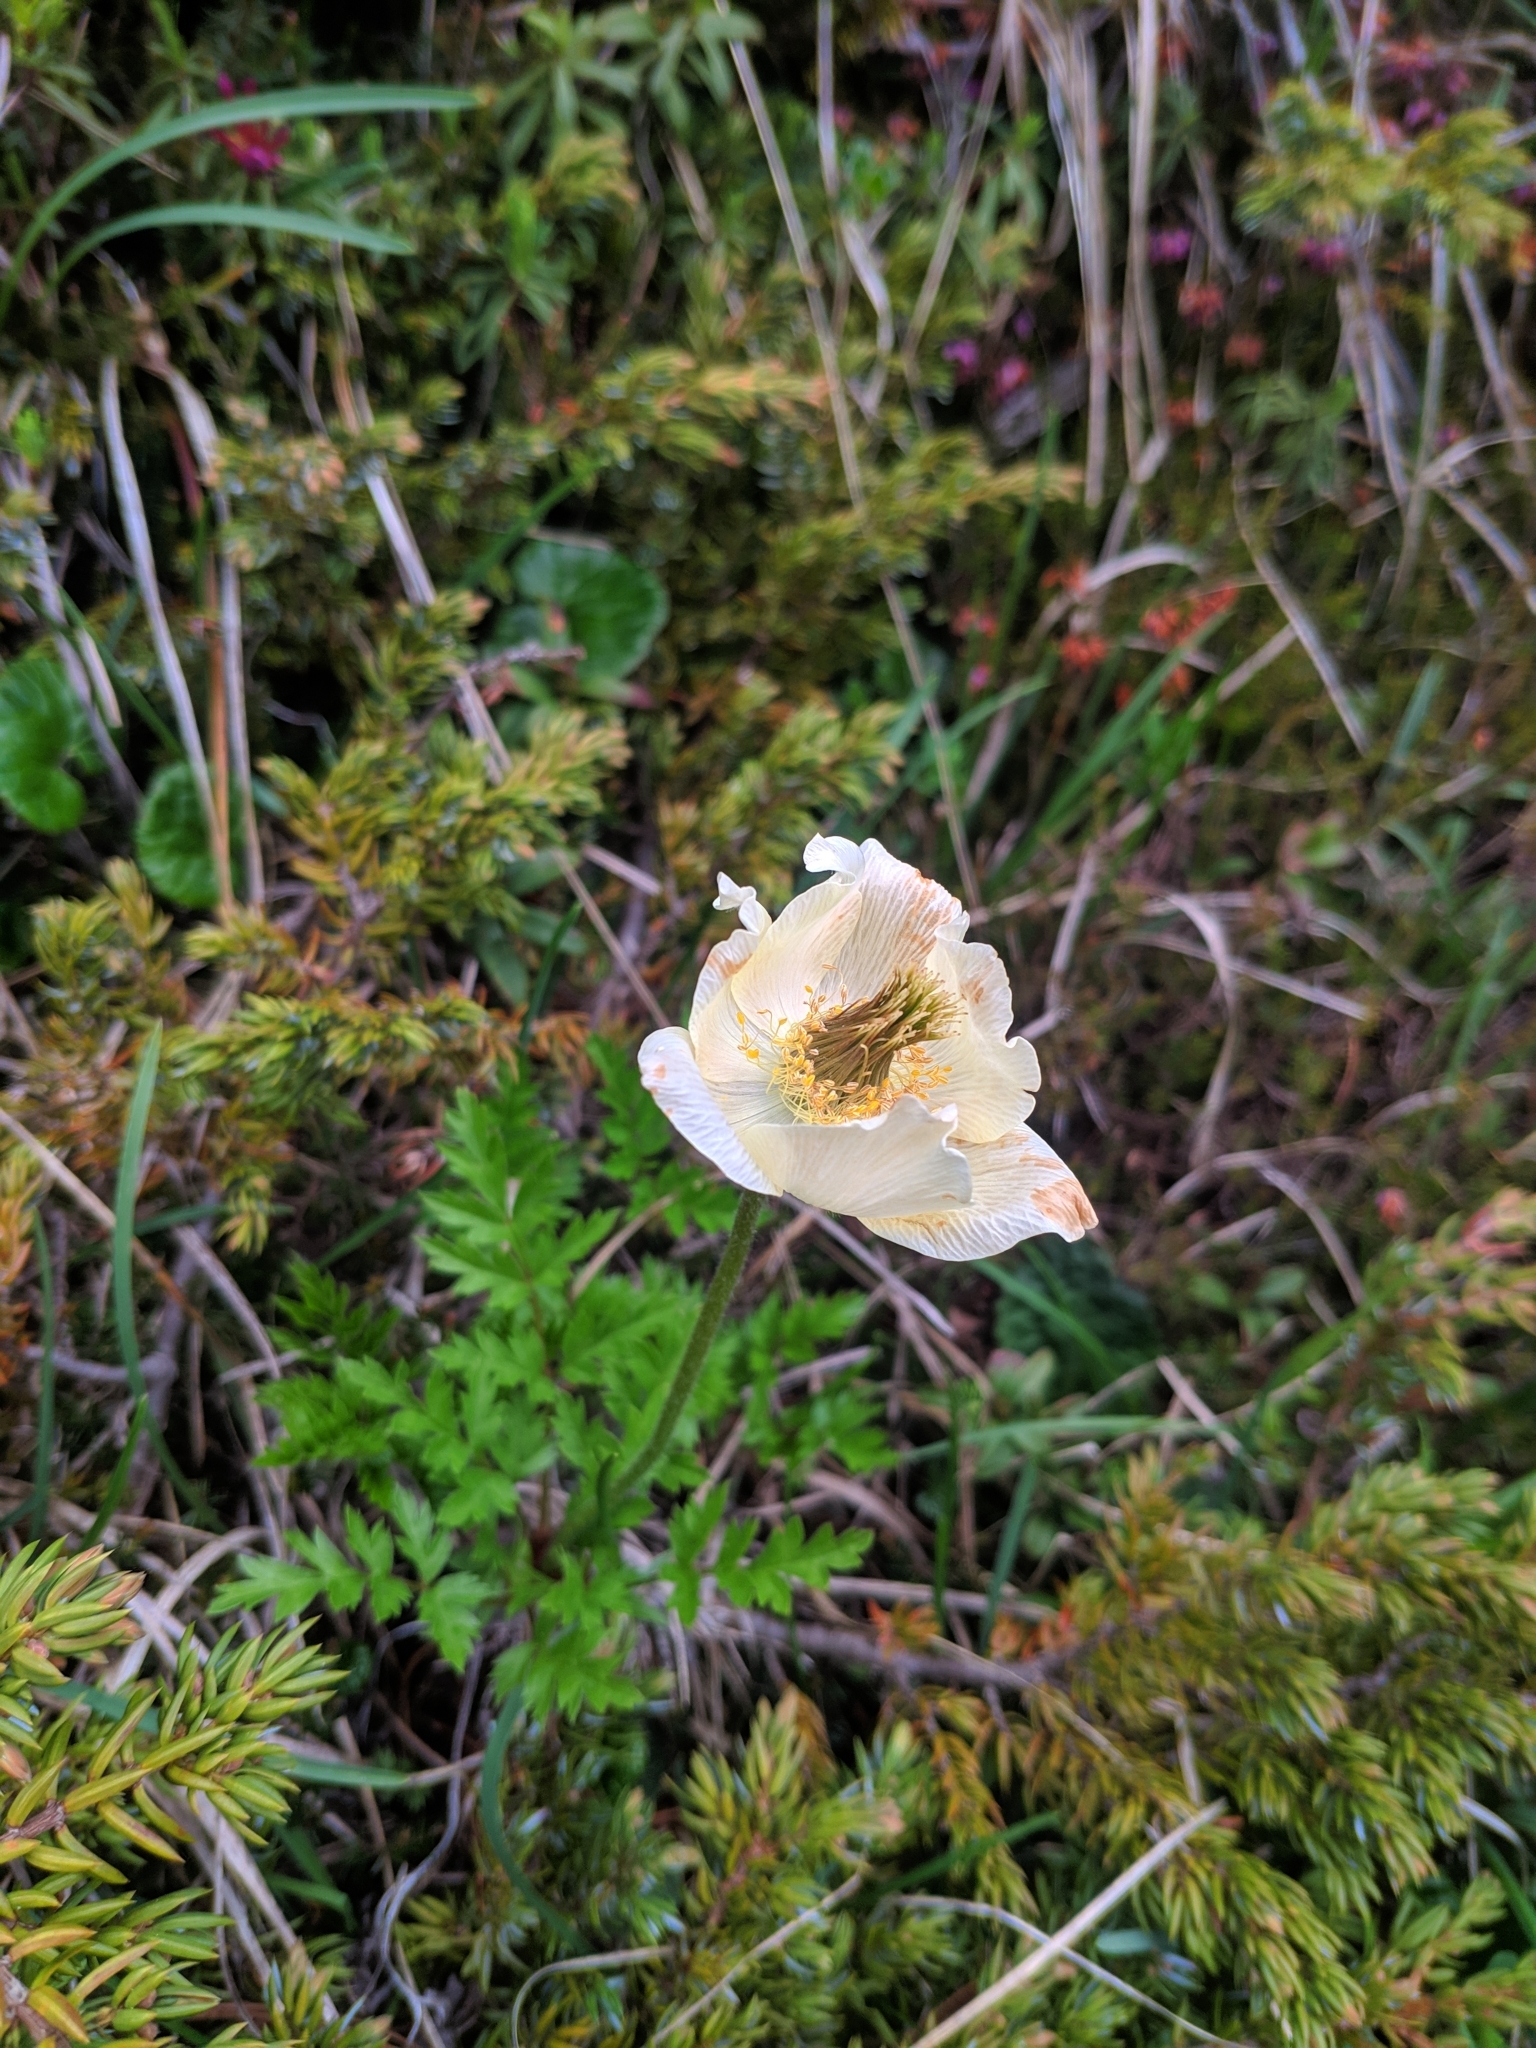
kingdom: Plantae
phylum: Tracheophyta
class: Magnoliopsida
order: Ranunculales
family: Ranunculaceae
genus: Pulsatilla
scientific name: Pulsatilla alpina
